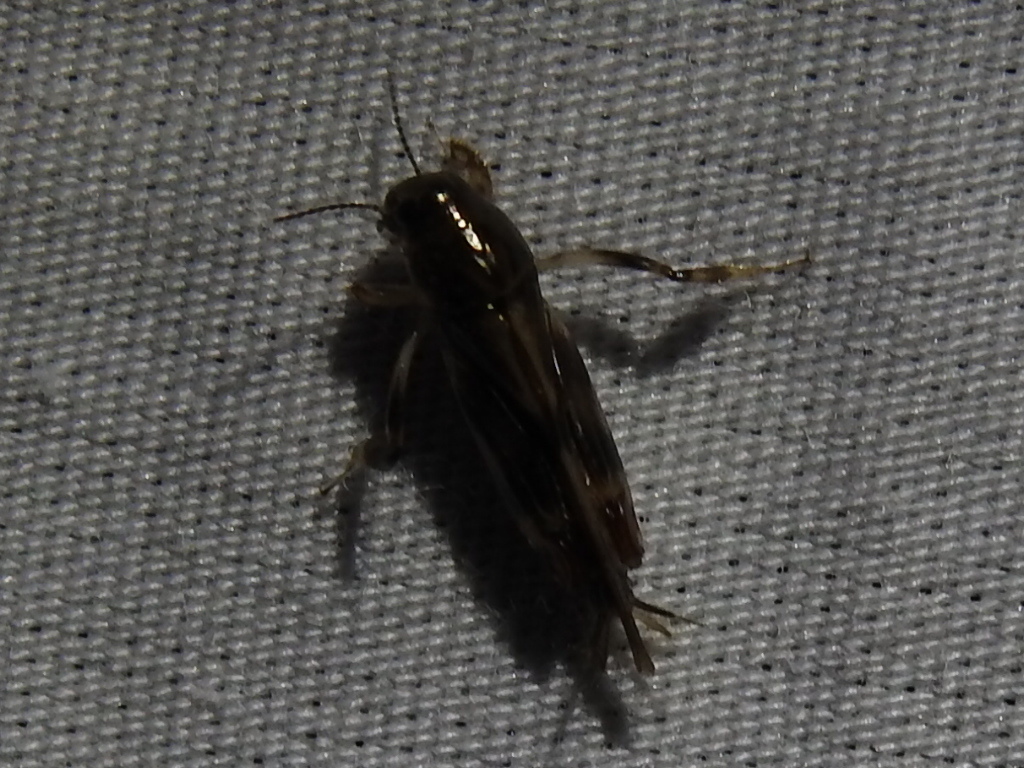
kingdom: Animalia
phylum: Arthropoda
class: Insecta
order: Orthoptera
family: Tridactylidae
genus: Neotridactylus
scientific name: Neotridactylus apicialis
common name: Larger pygmy locust
